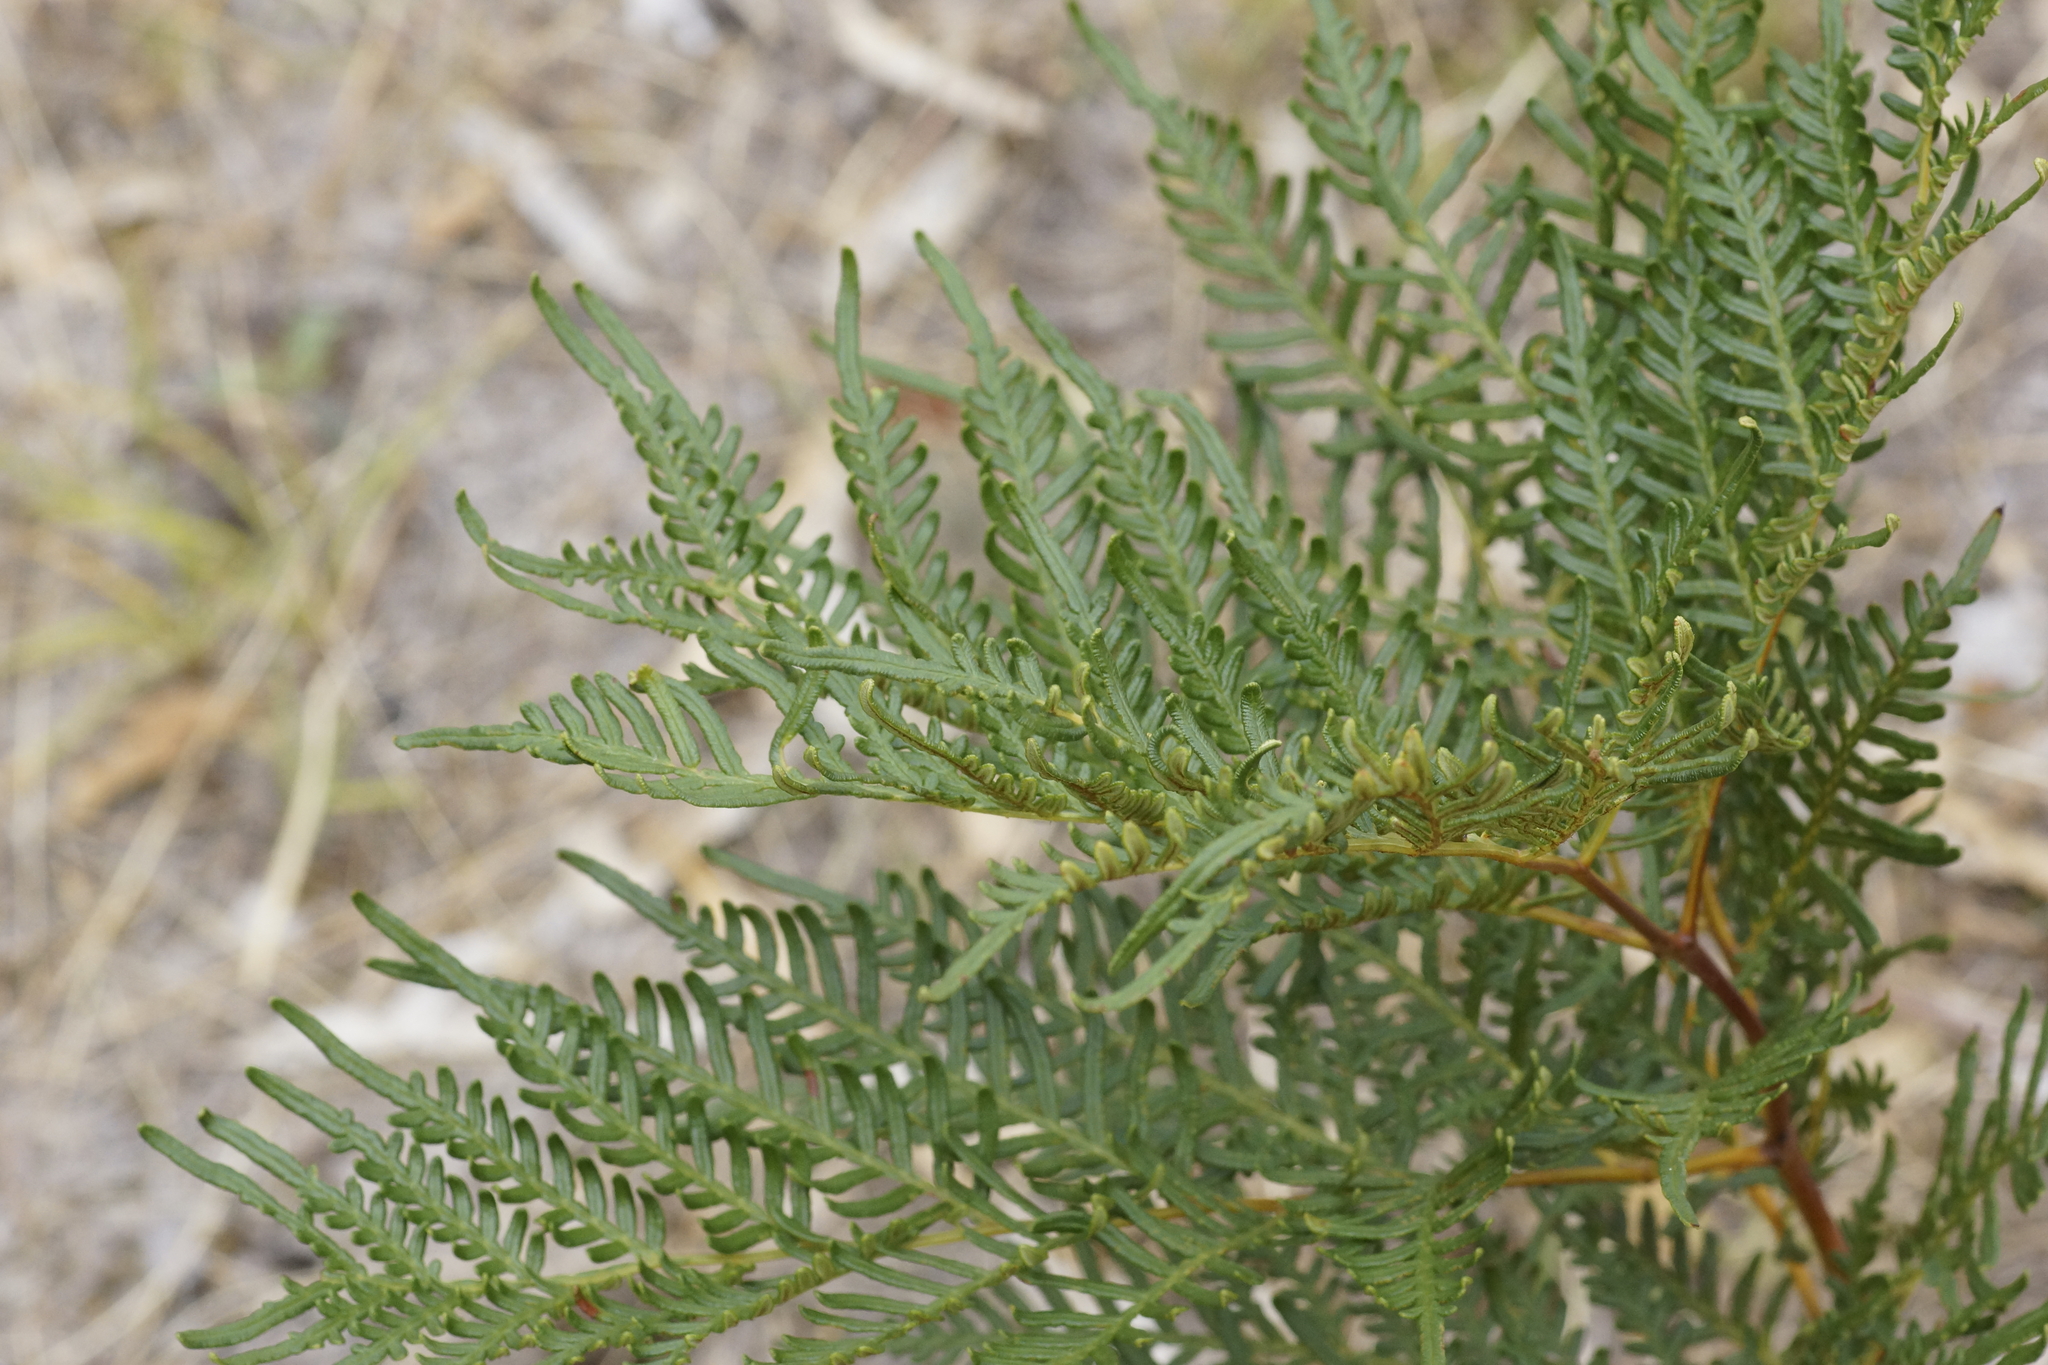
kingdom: Plantae
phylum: Tracheophyta
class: Polypodiopsida
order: Polypodiales
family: Dennstaedtiaceae
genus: Pteridium
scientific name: Pteridium esculentum
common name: Bracken fern
